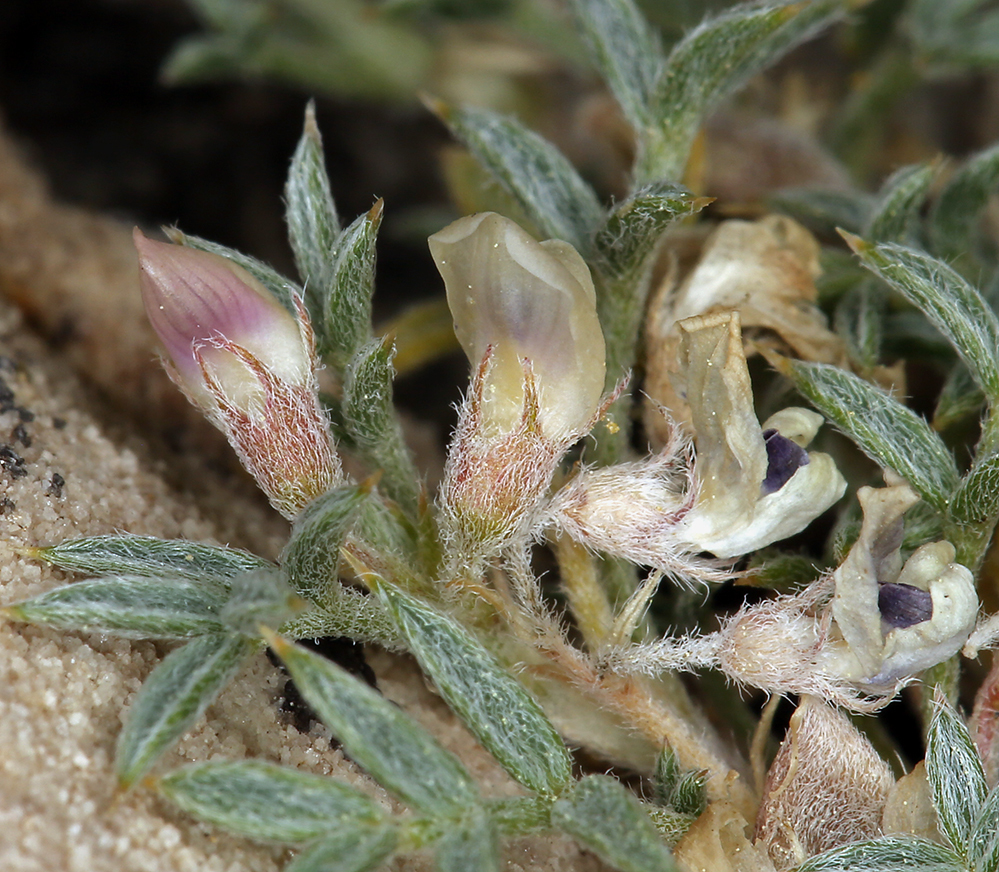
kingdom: Plantae
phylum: Tracheophyta
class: Magnoliopsida
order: Fabales
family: Fabaceae
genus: Astragalus
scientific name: Astragalus kentrophyta
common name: Prickly milk-vetch
